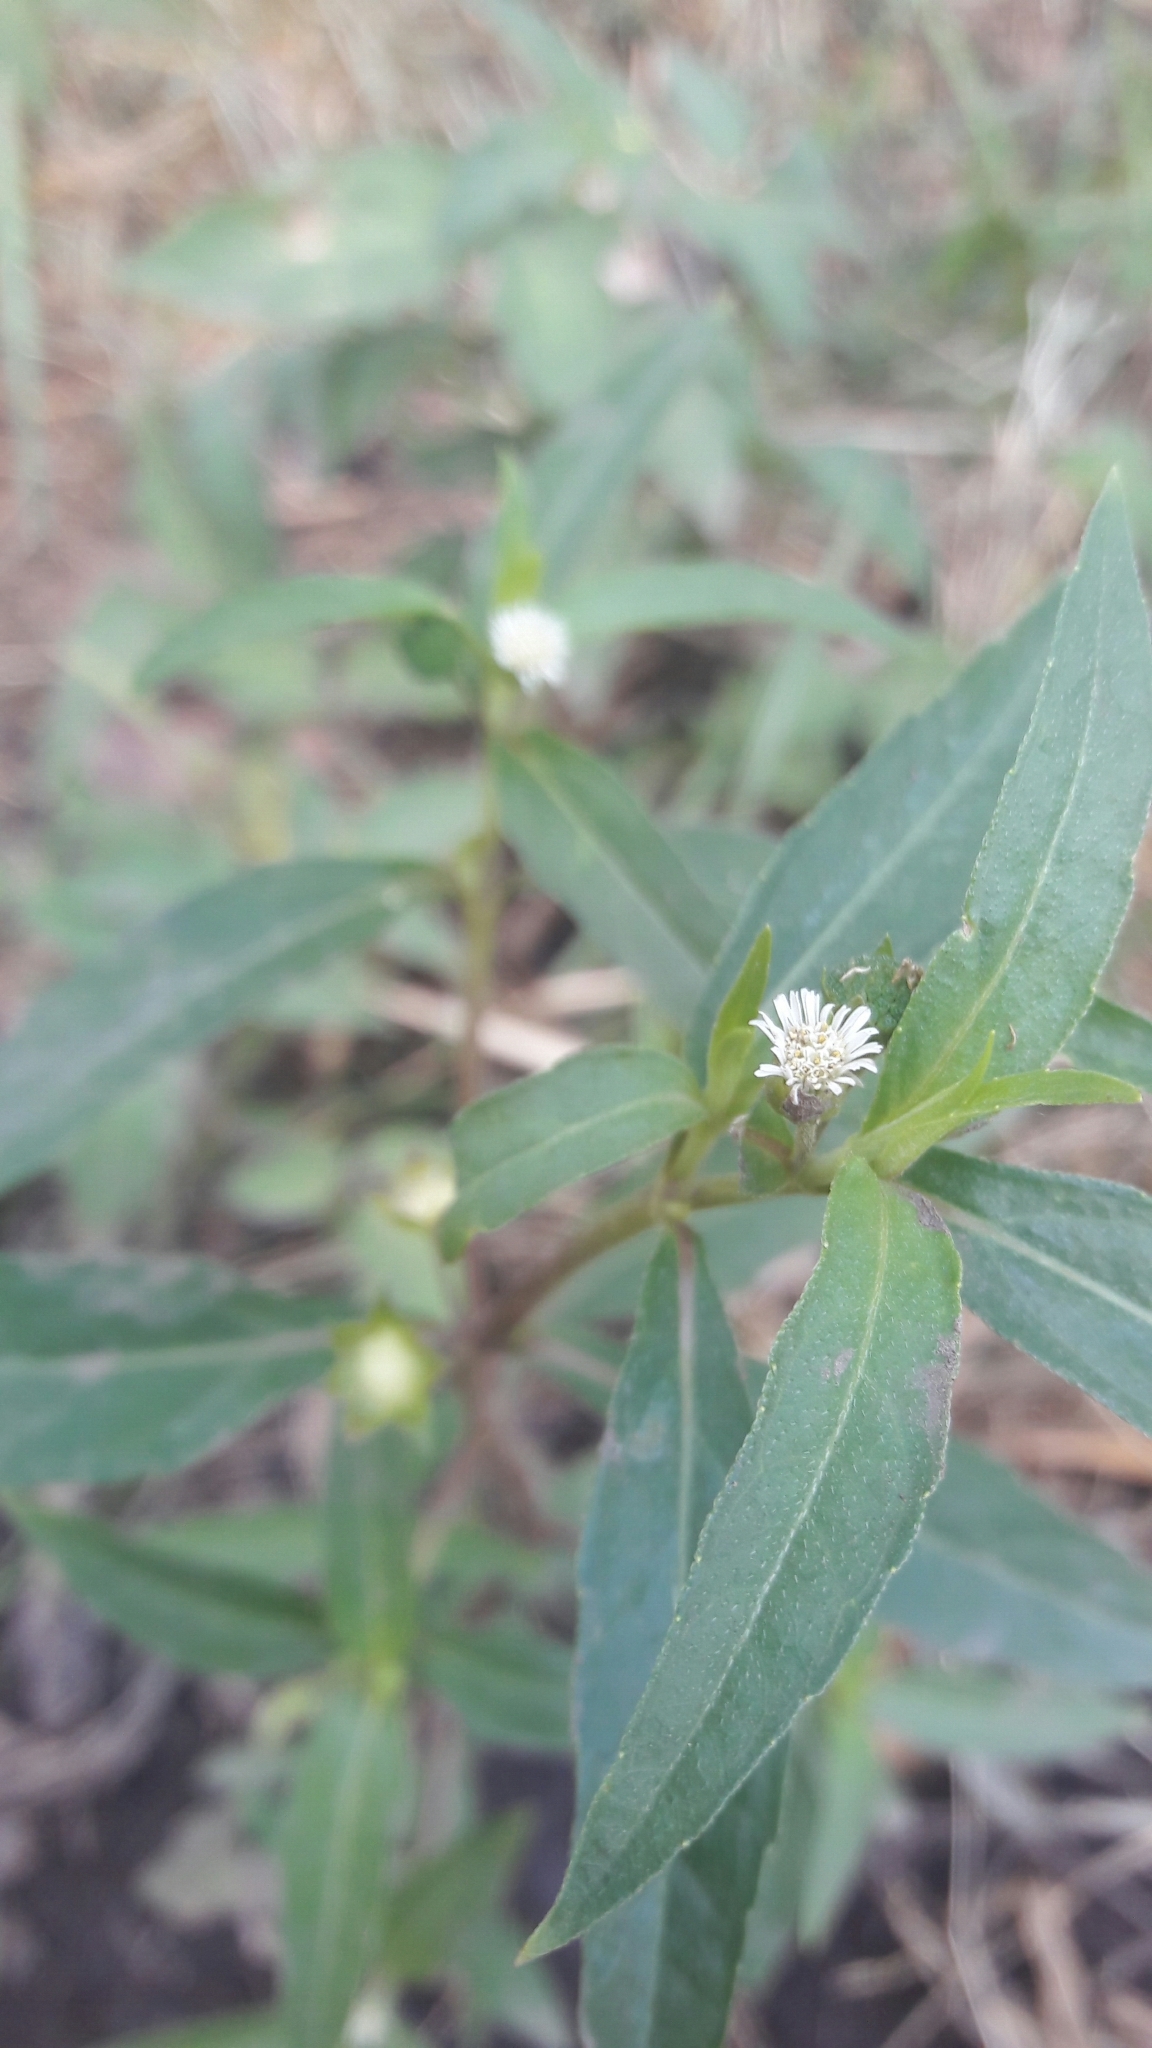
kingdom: Plantae
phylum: Tracheophyta
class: Magnoliopsida
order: Asterales
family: Asteraceae
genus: Eclipta
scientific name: Eclipta prostrata
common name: False daisy
